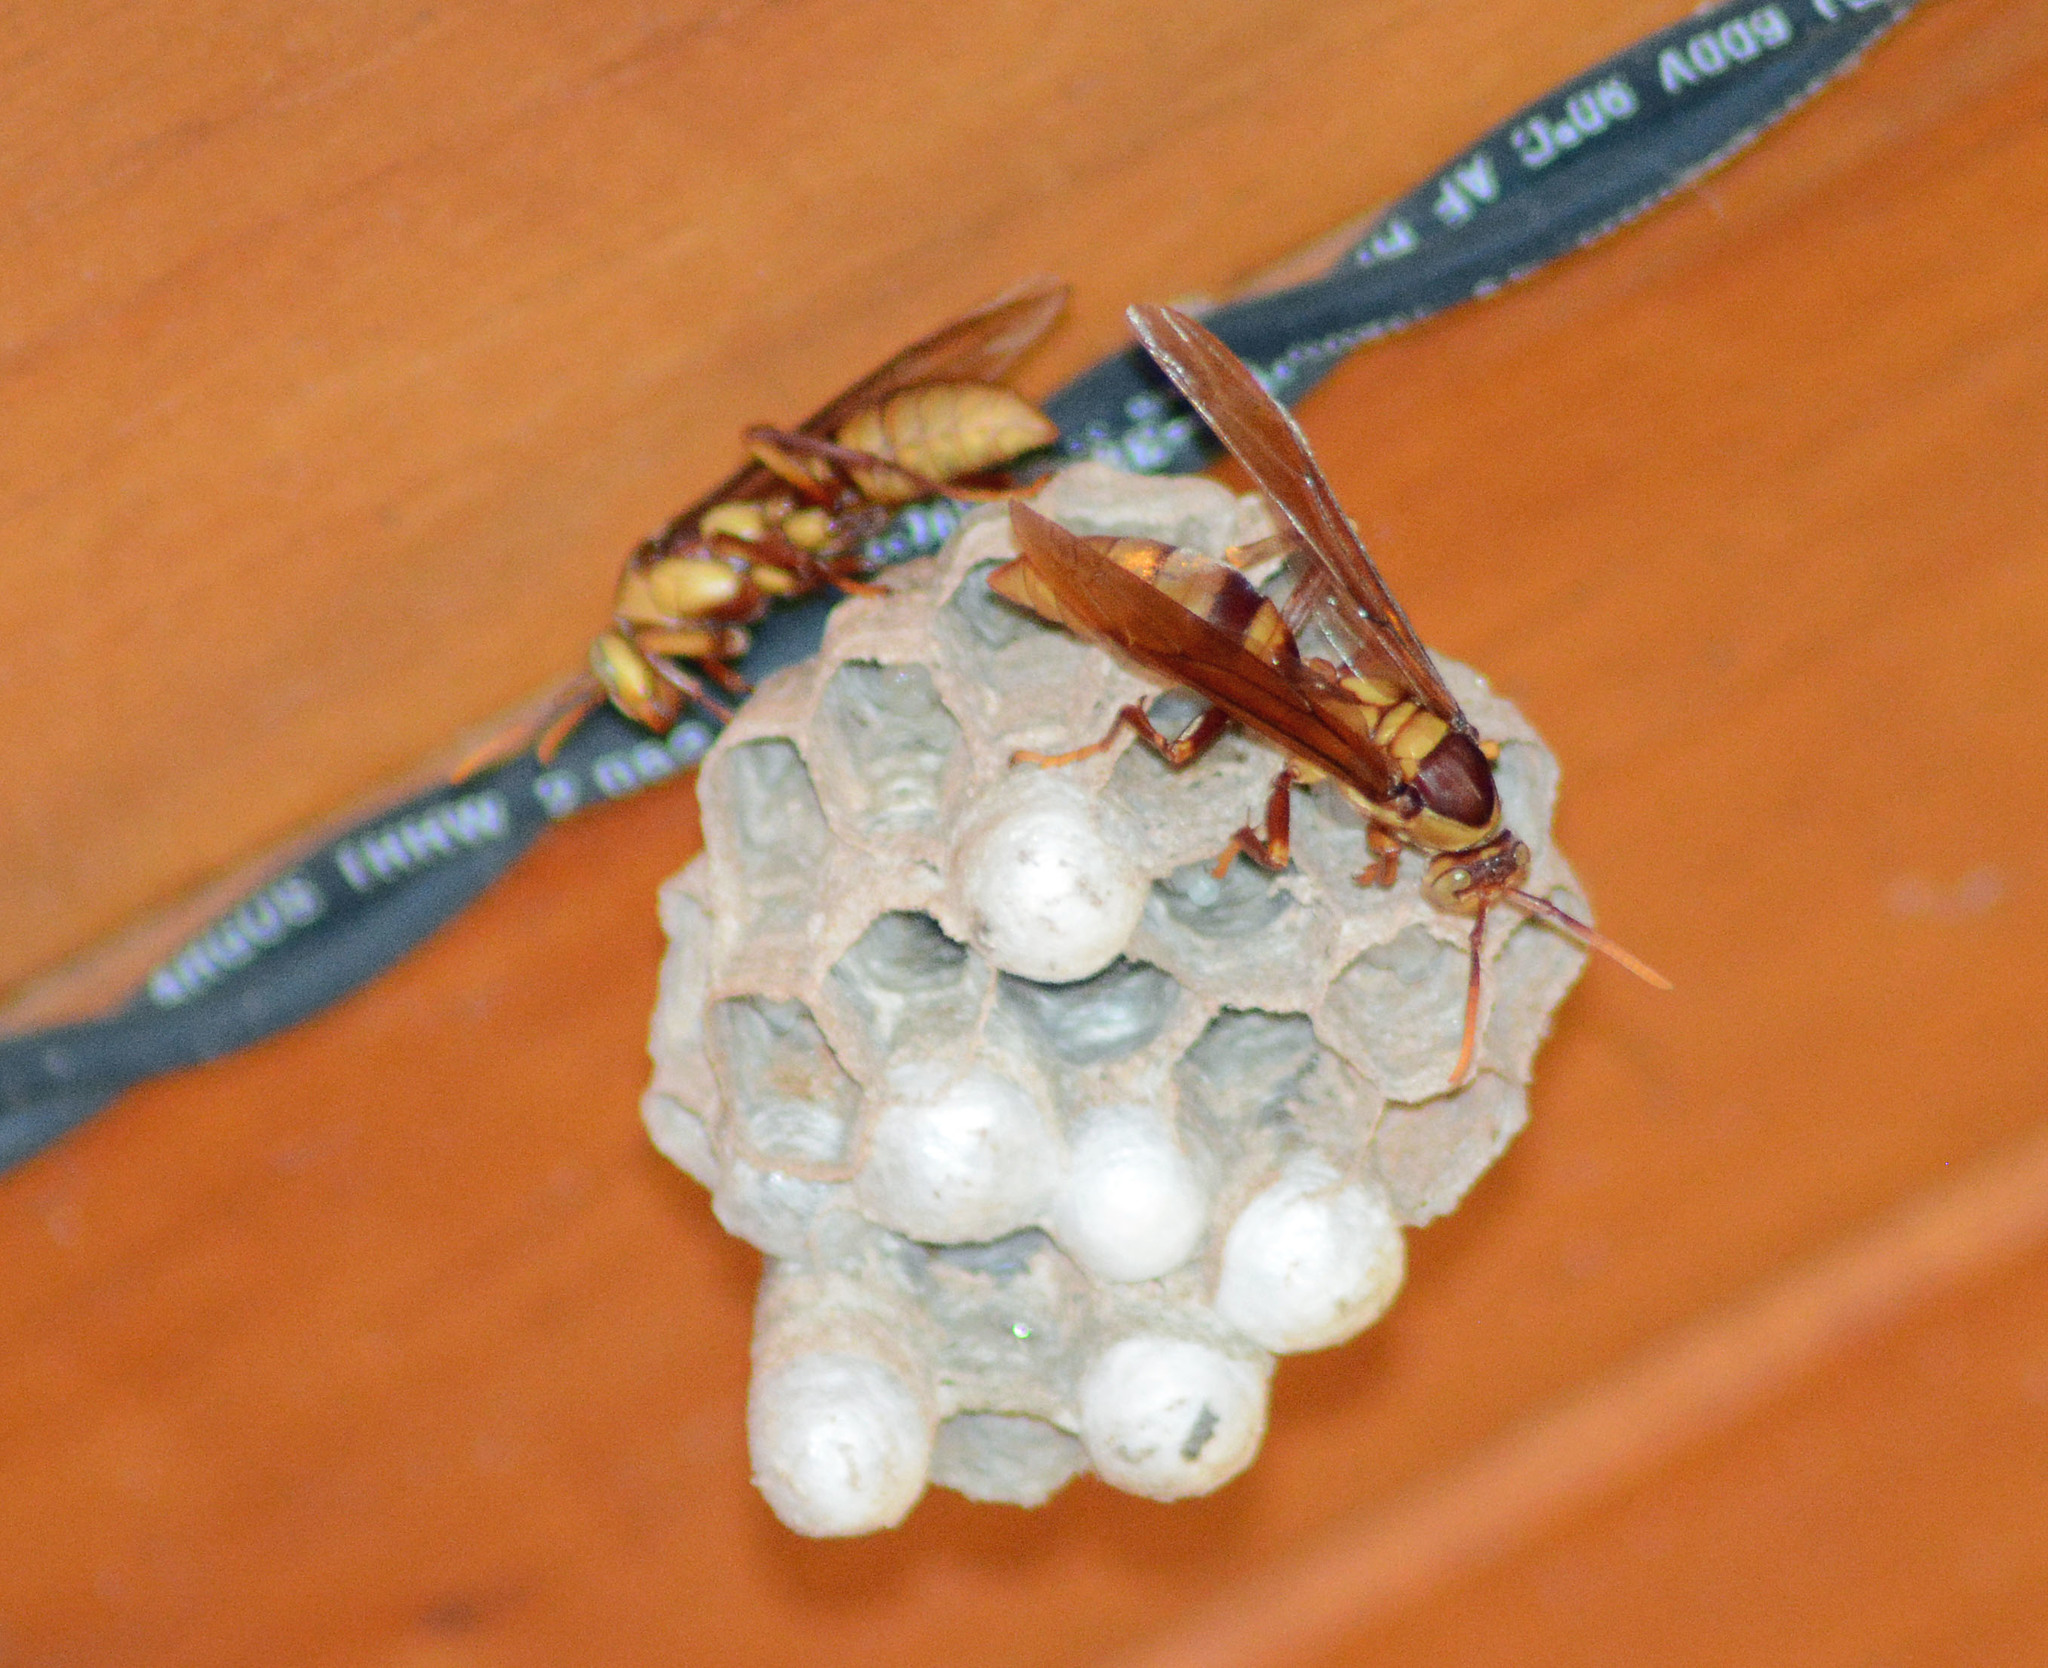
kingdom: Animalia
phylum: Arthropoda
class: Insecta
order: Hymenoptera
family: Eumenidae
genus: Polistes
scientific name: Polistes carnifex
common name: Paper wasp
